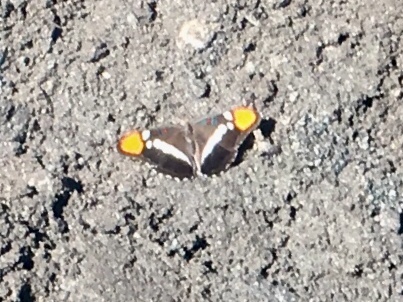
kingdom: Animalia
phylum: Arthropoda
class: Insecta
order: Lepidoptera
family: Nymphalidae
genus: Limenitis
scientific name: Limenitis bredowii
